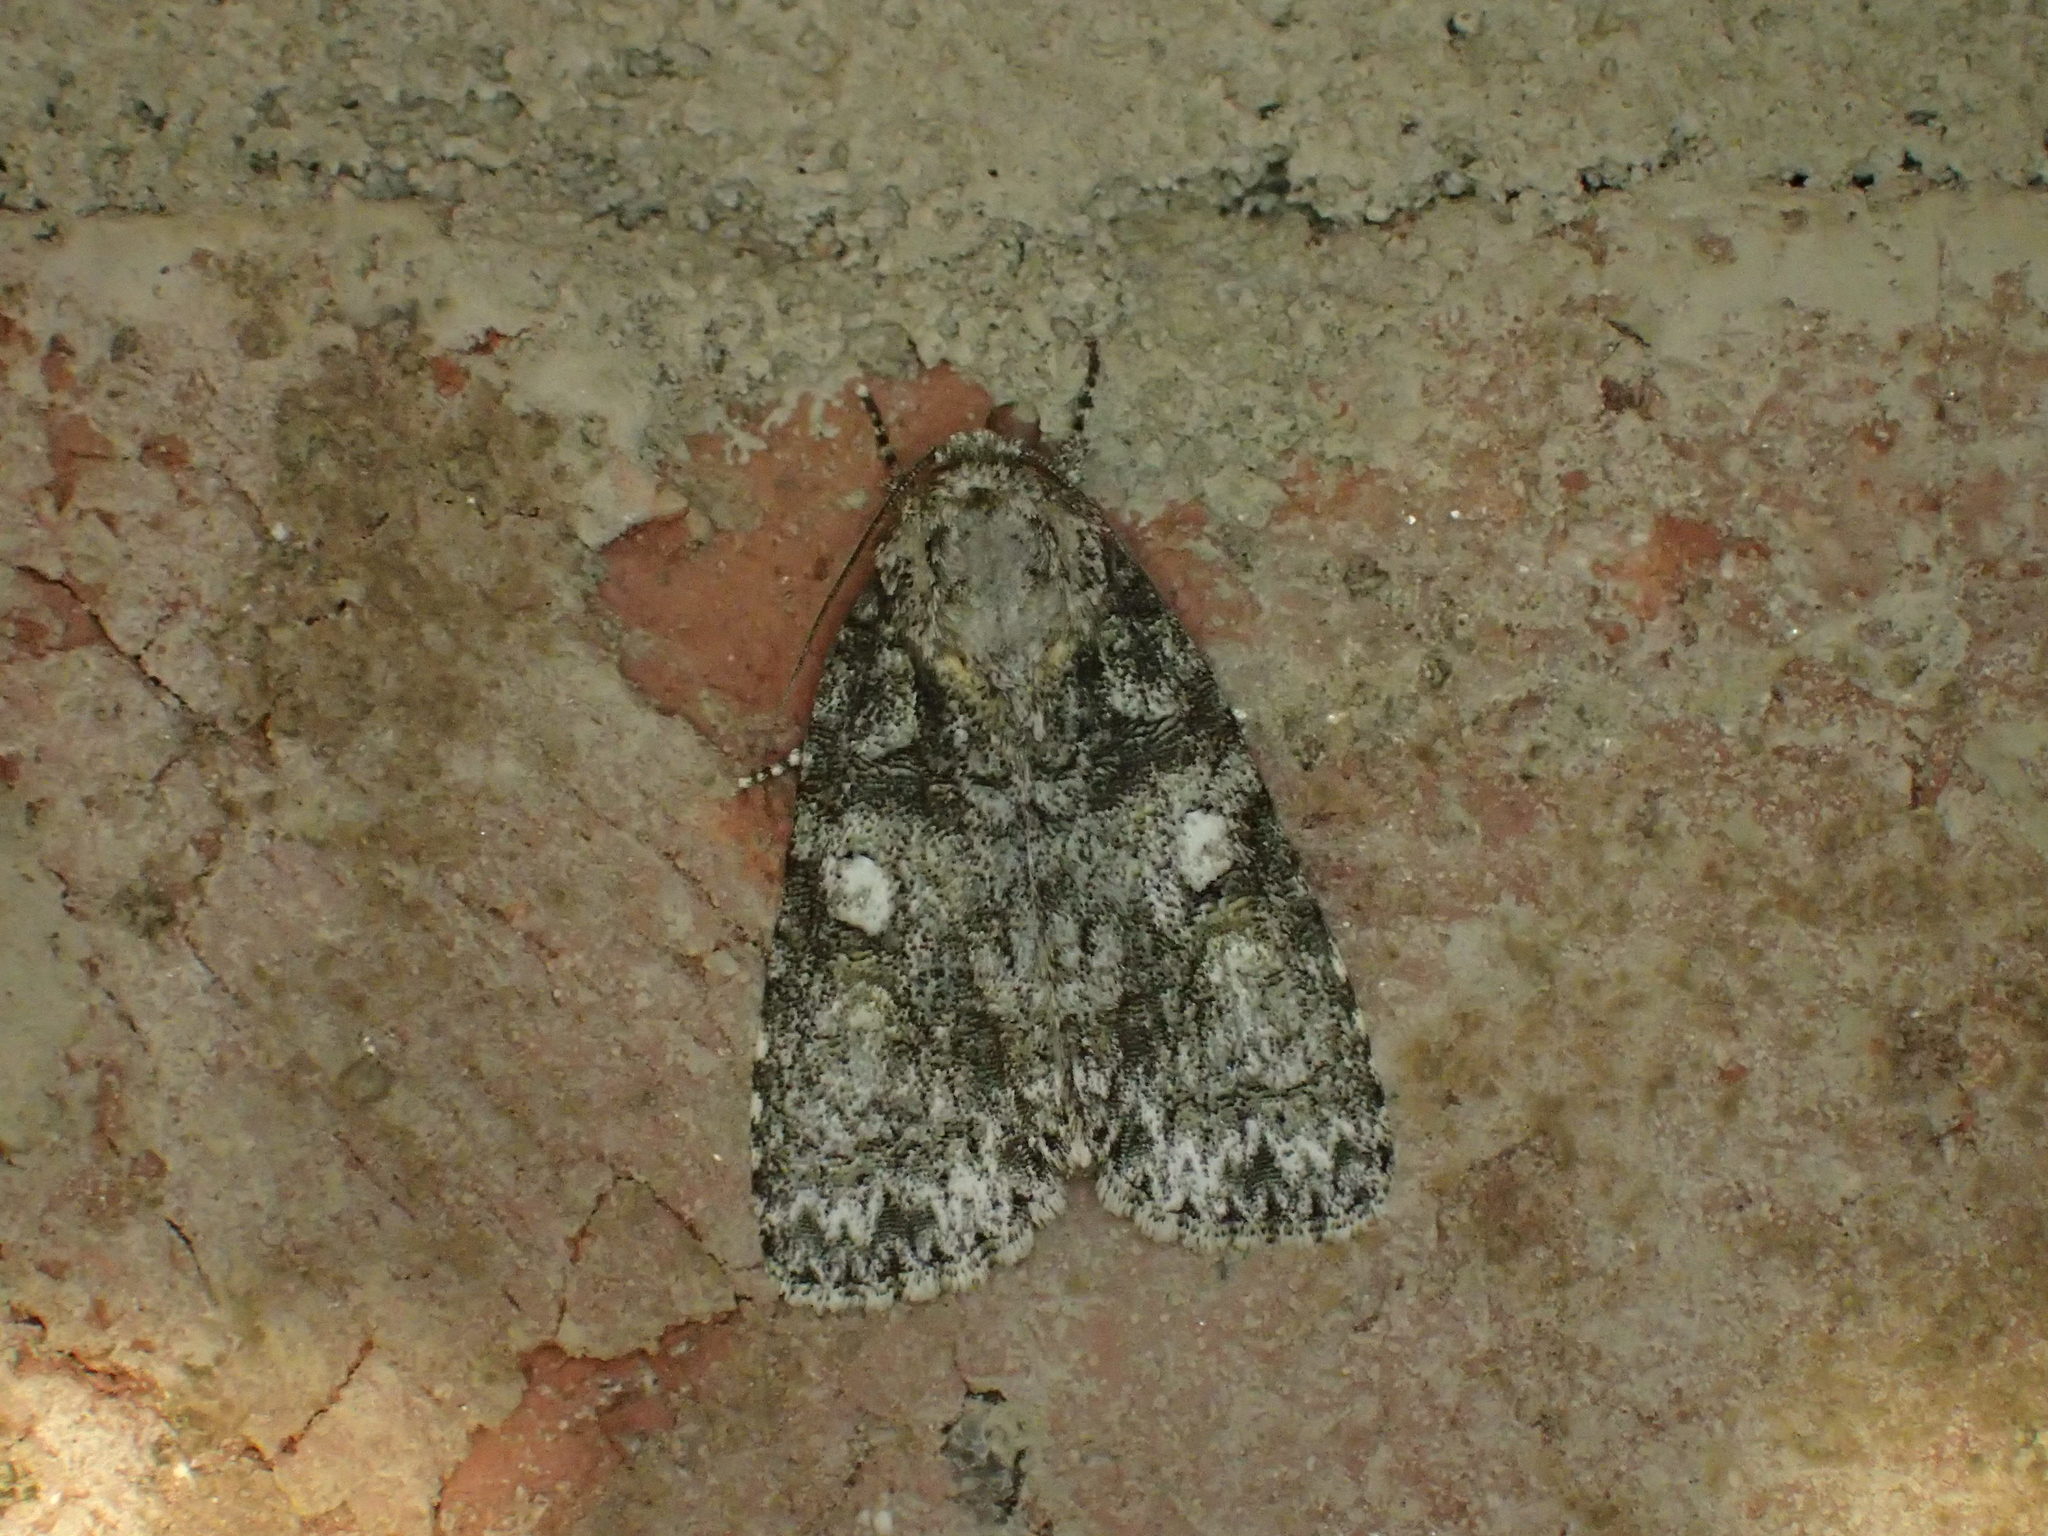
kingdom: Animalia
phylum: Arthropoda
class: Insecta
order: Lepidoptera
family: Noctuidae
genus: Acronicta
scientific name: Acronicta increta
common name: Eclipsed oak dagger
